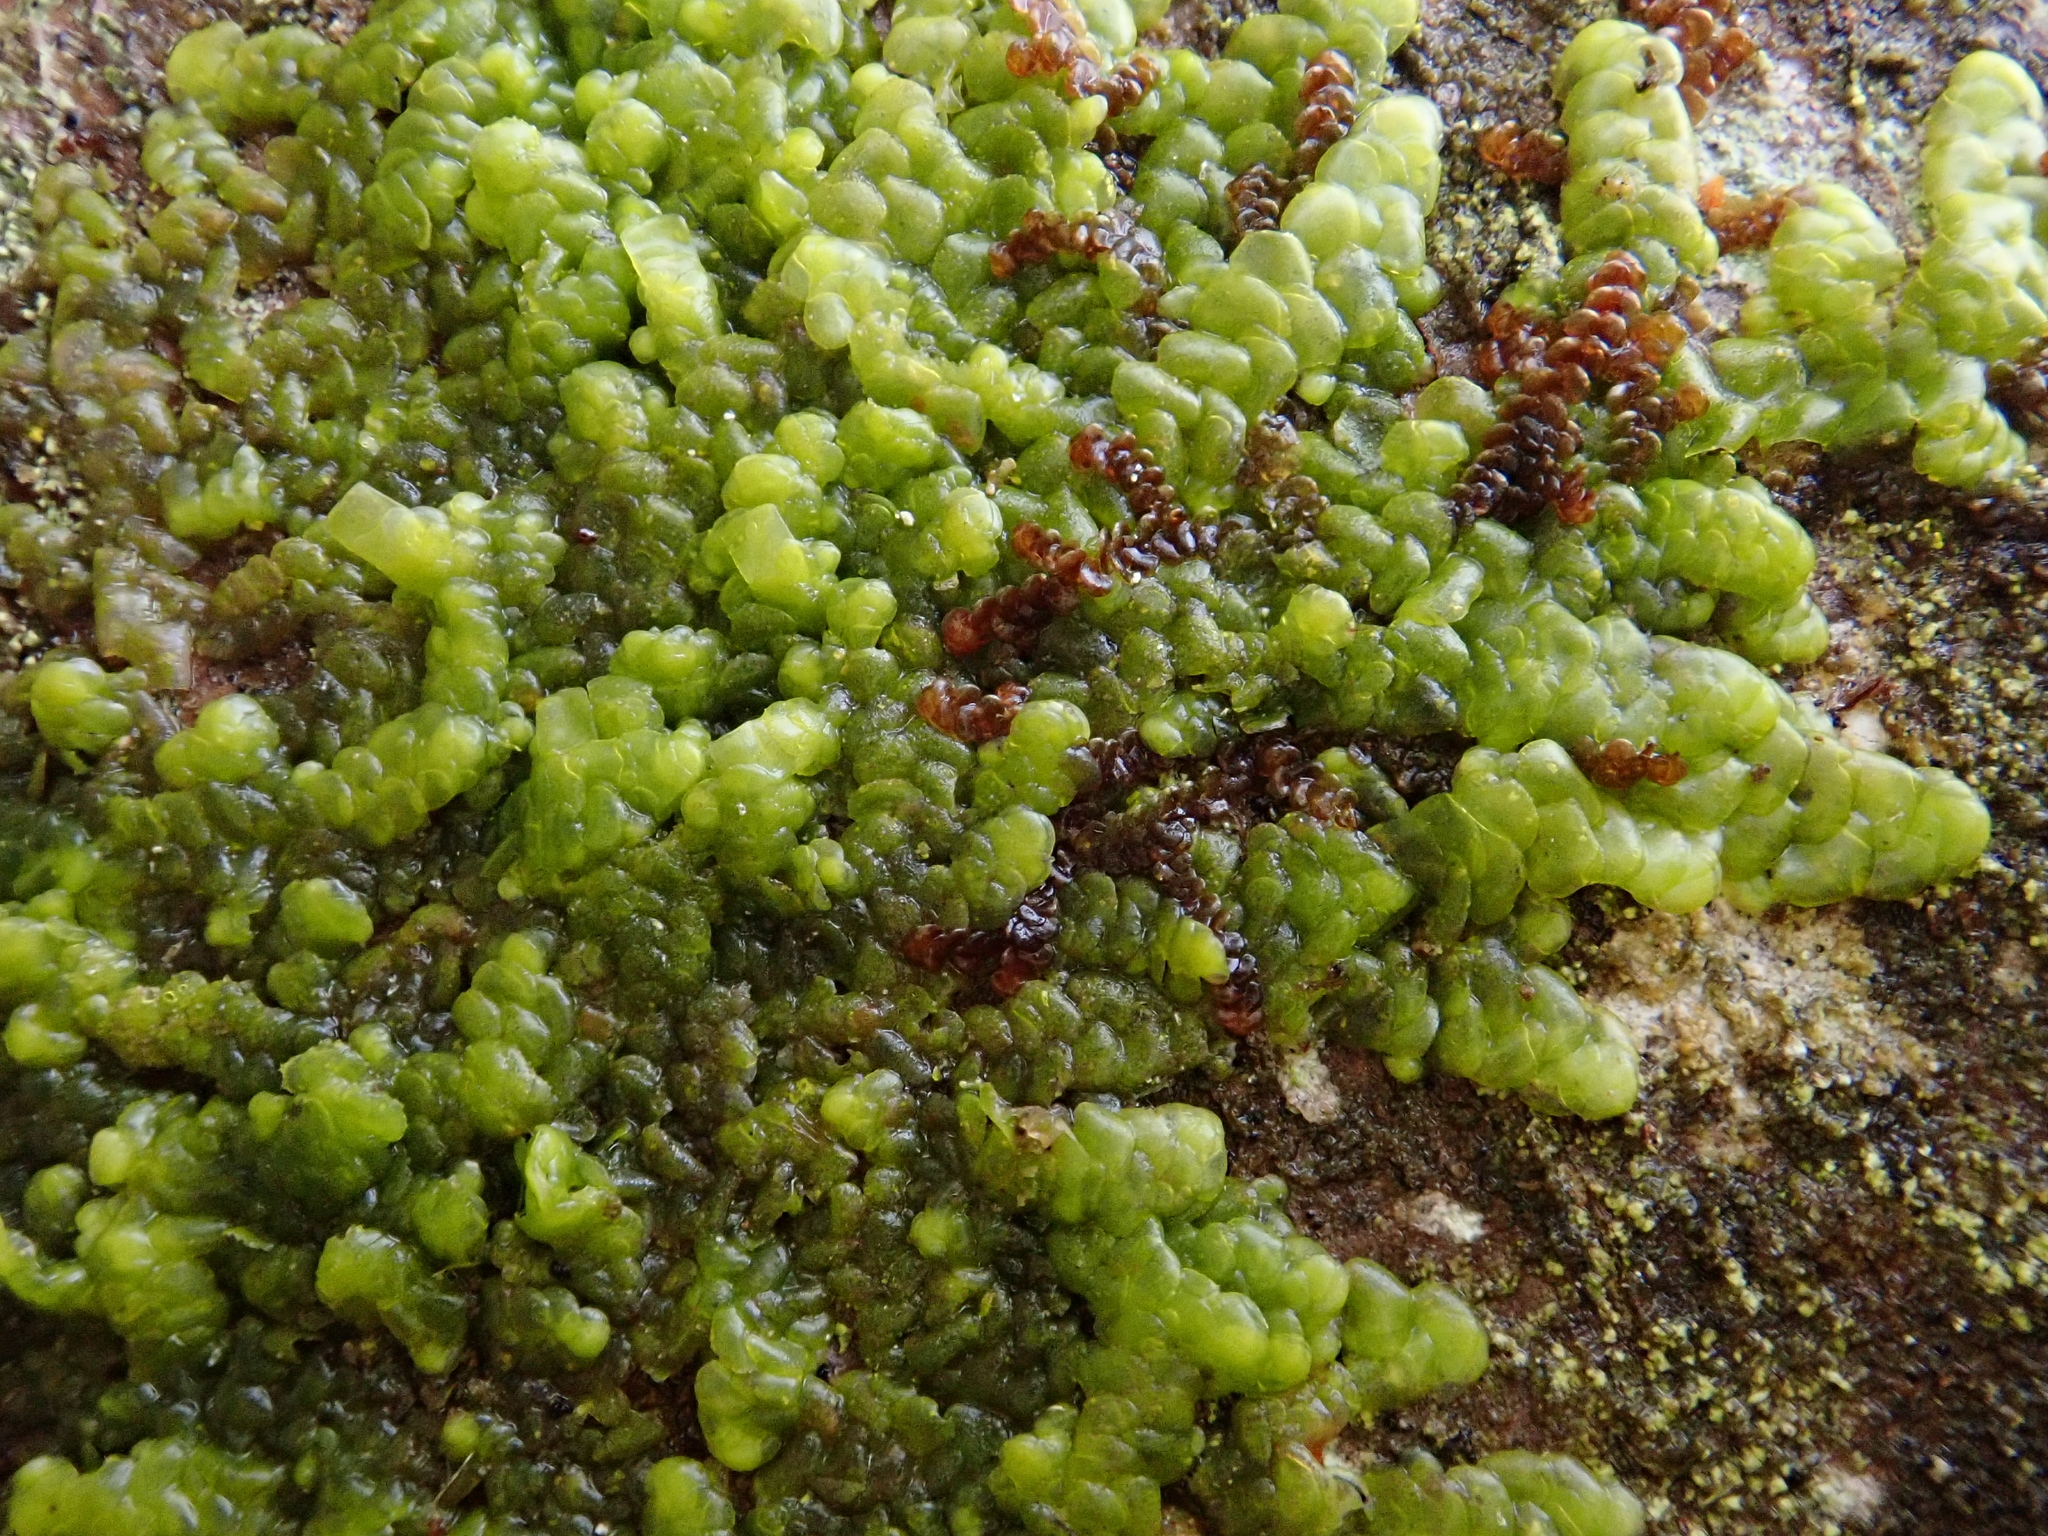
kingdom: Plantae
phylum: Marchantiophyta
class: Jungermanniopsida
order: Porellales
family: Radulaceae
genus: Radula
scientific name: Radula complanata
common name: Flat-leaved scalewort
